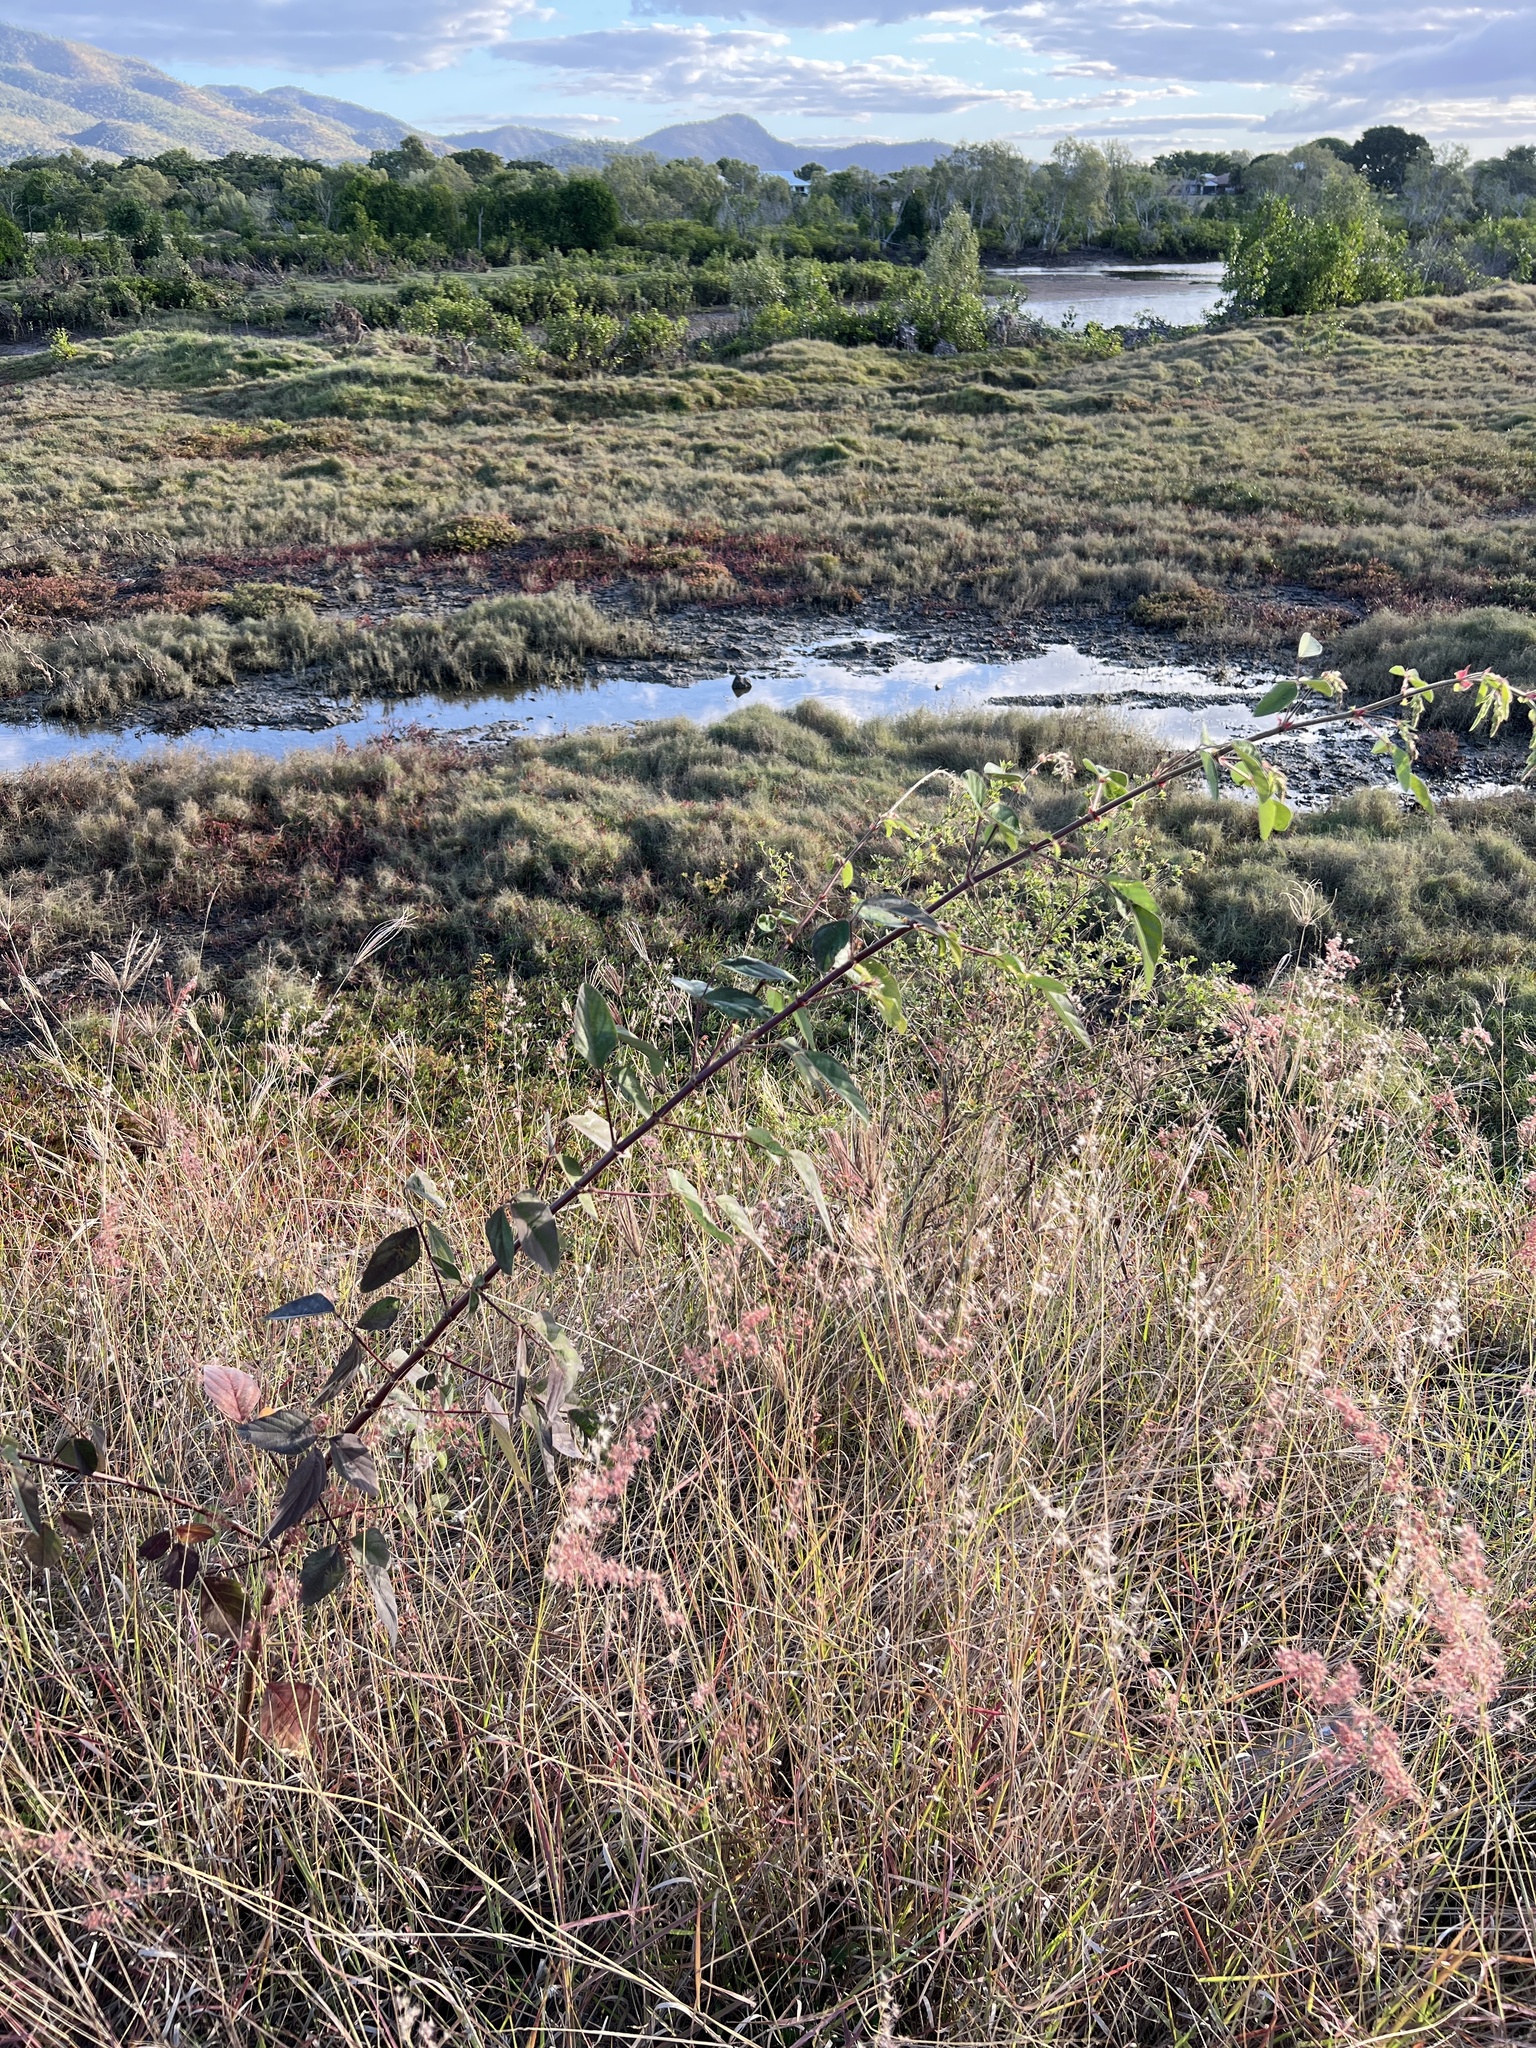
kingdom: Plantae
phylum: Tracheophyta
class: Magnoliopsida
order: Fabales
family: Fabaceae
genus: Desmodium
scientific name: Desmodium tortuosum
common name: Dixie ticktrefoil
